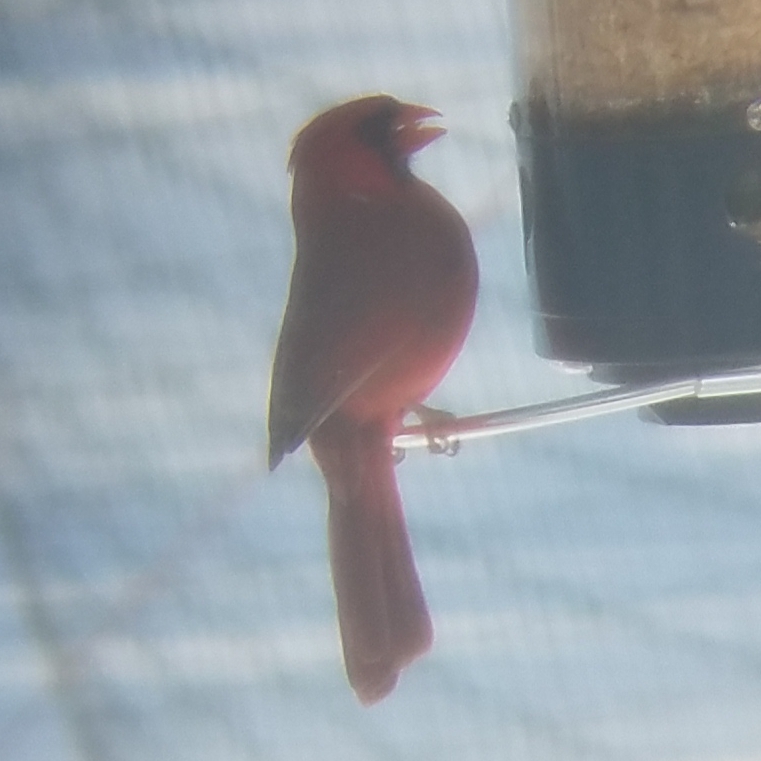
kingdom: Animalia
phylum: Chordata
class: Aves
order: Passeriformes
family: Cardinalidae
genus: Cardinalis
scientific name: Cardinalis cardinalis
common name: Northern cardinal
